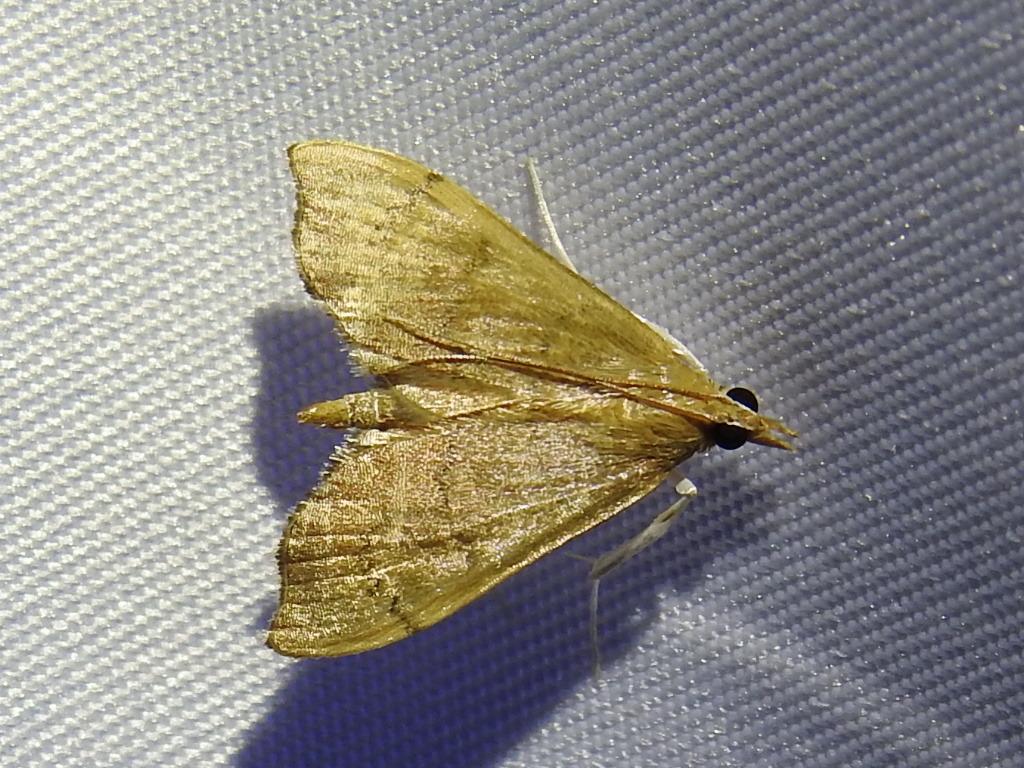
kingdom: Animalia
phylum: Arthropoda
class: Insecta
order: Lepidoptera
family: Crambidae
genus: Sericoplaga
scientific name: Sericoplaga externalis
